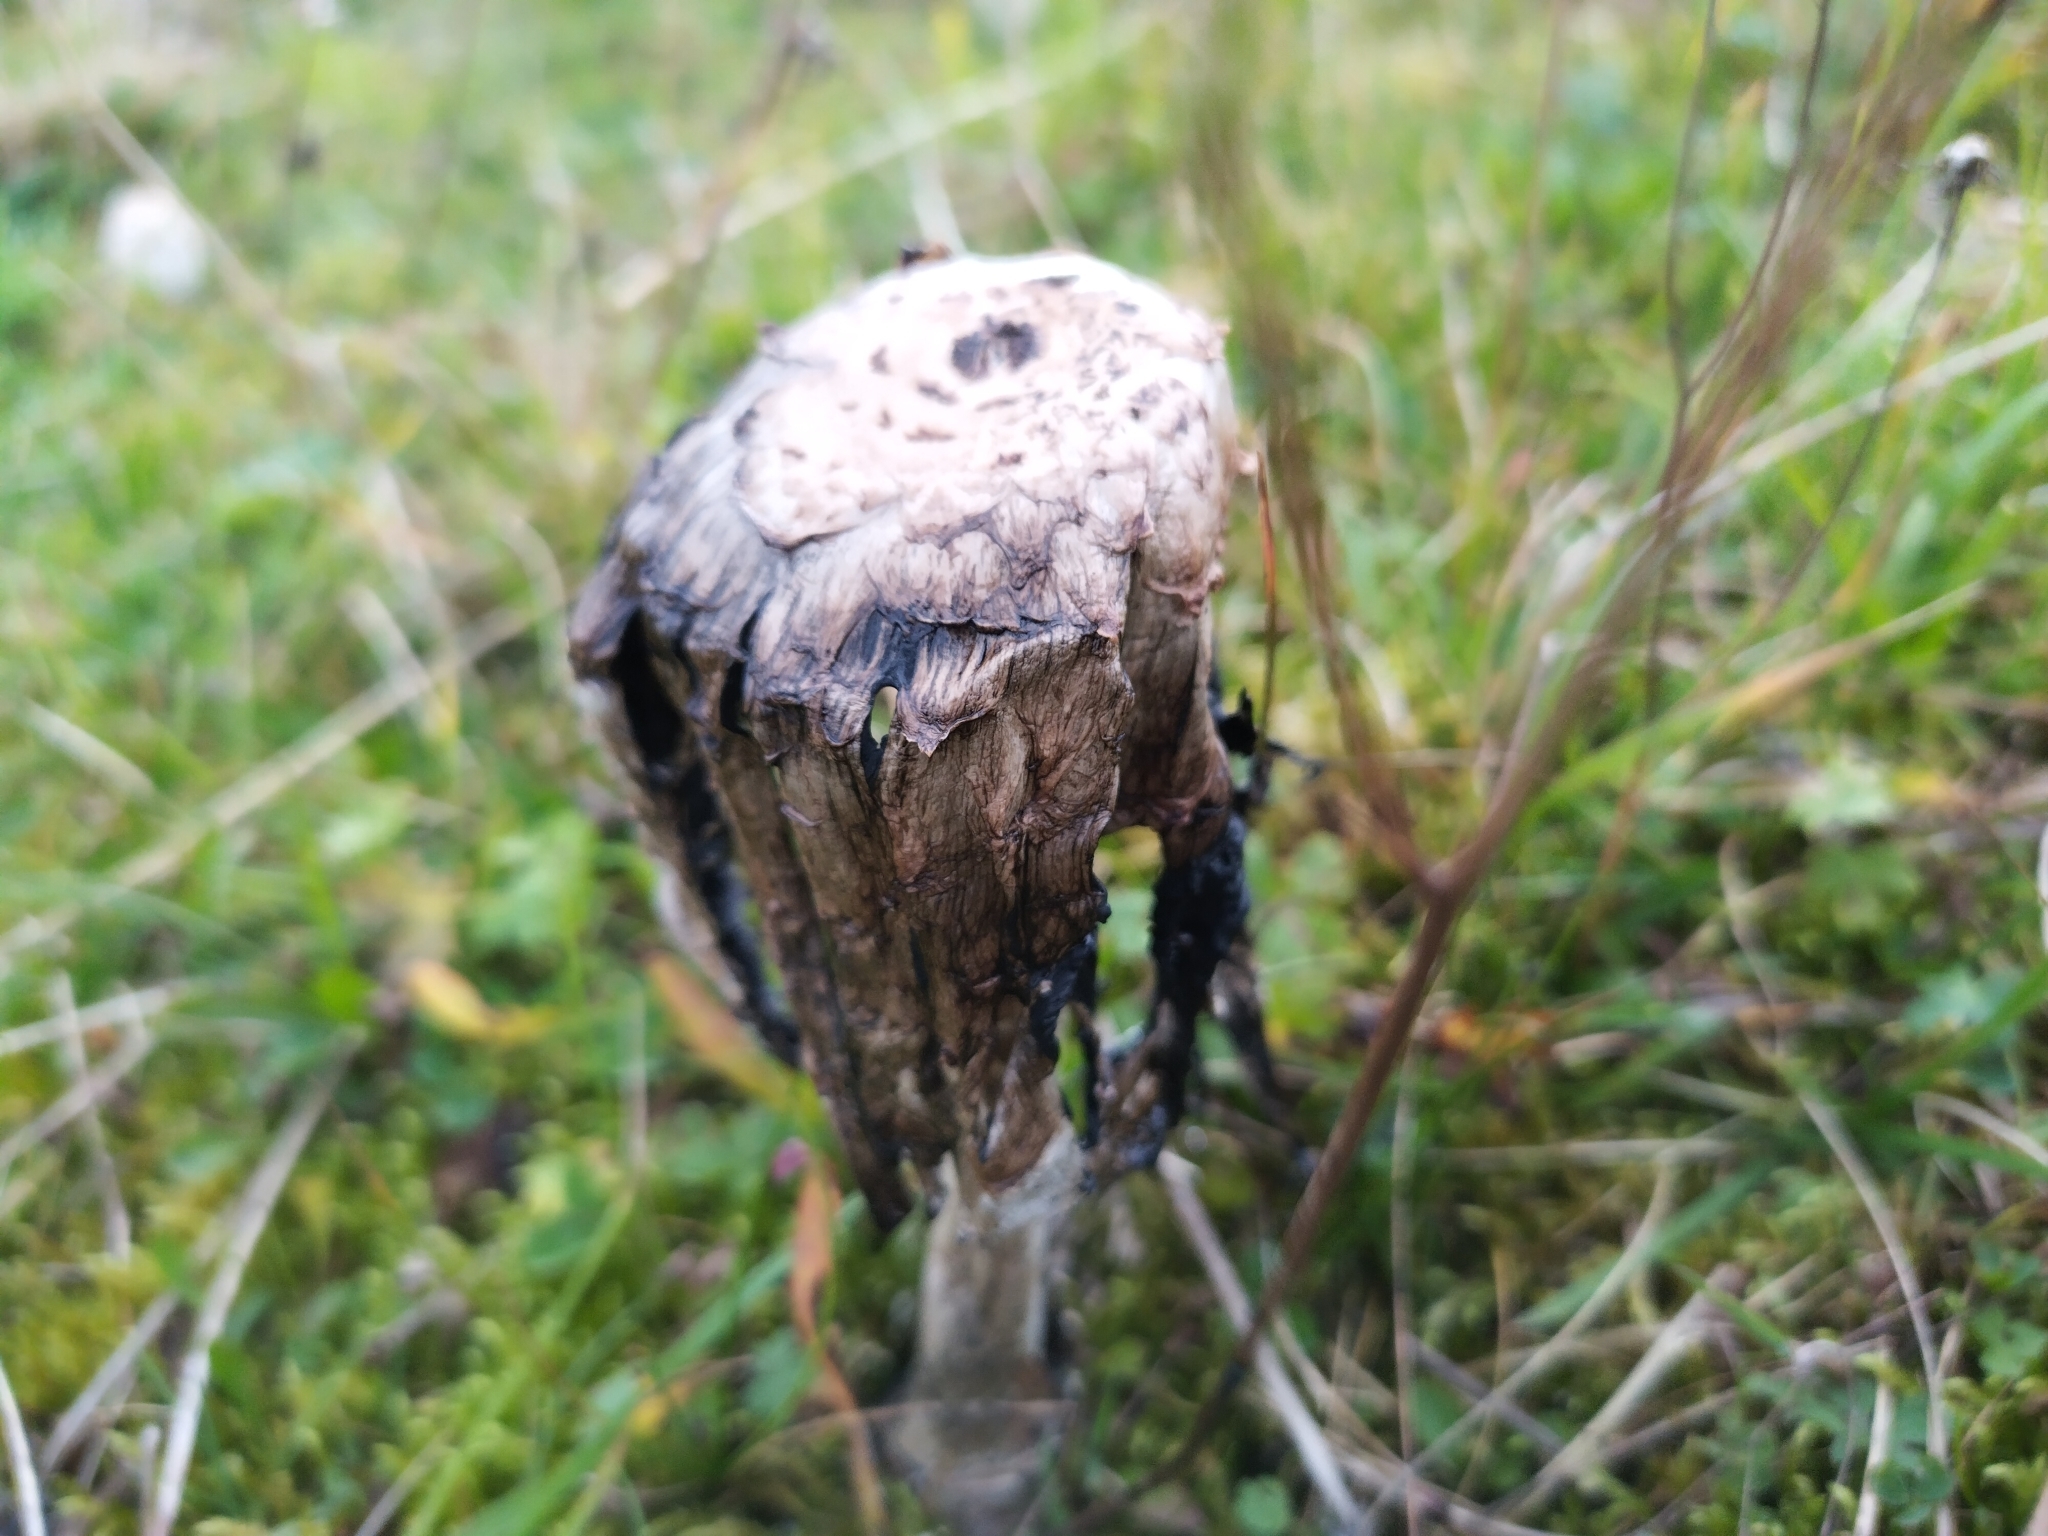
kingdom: Fungi
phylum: Basidiomycota
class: Agaricomycetes
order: Agaricales
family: Agaricaceae
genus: Coprinus
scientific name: Coprinus comatus
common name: Lawyer's wig
